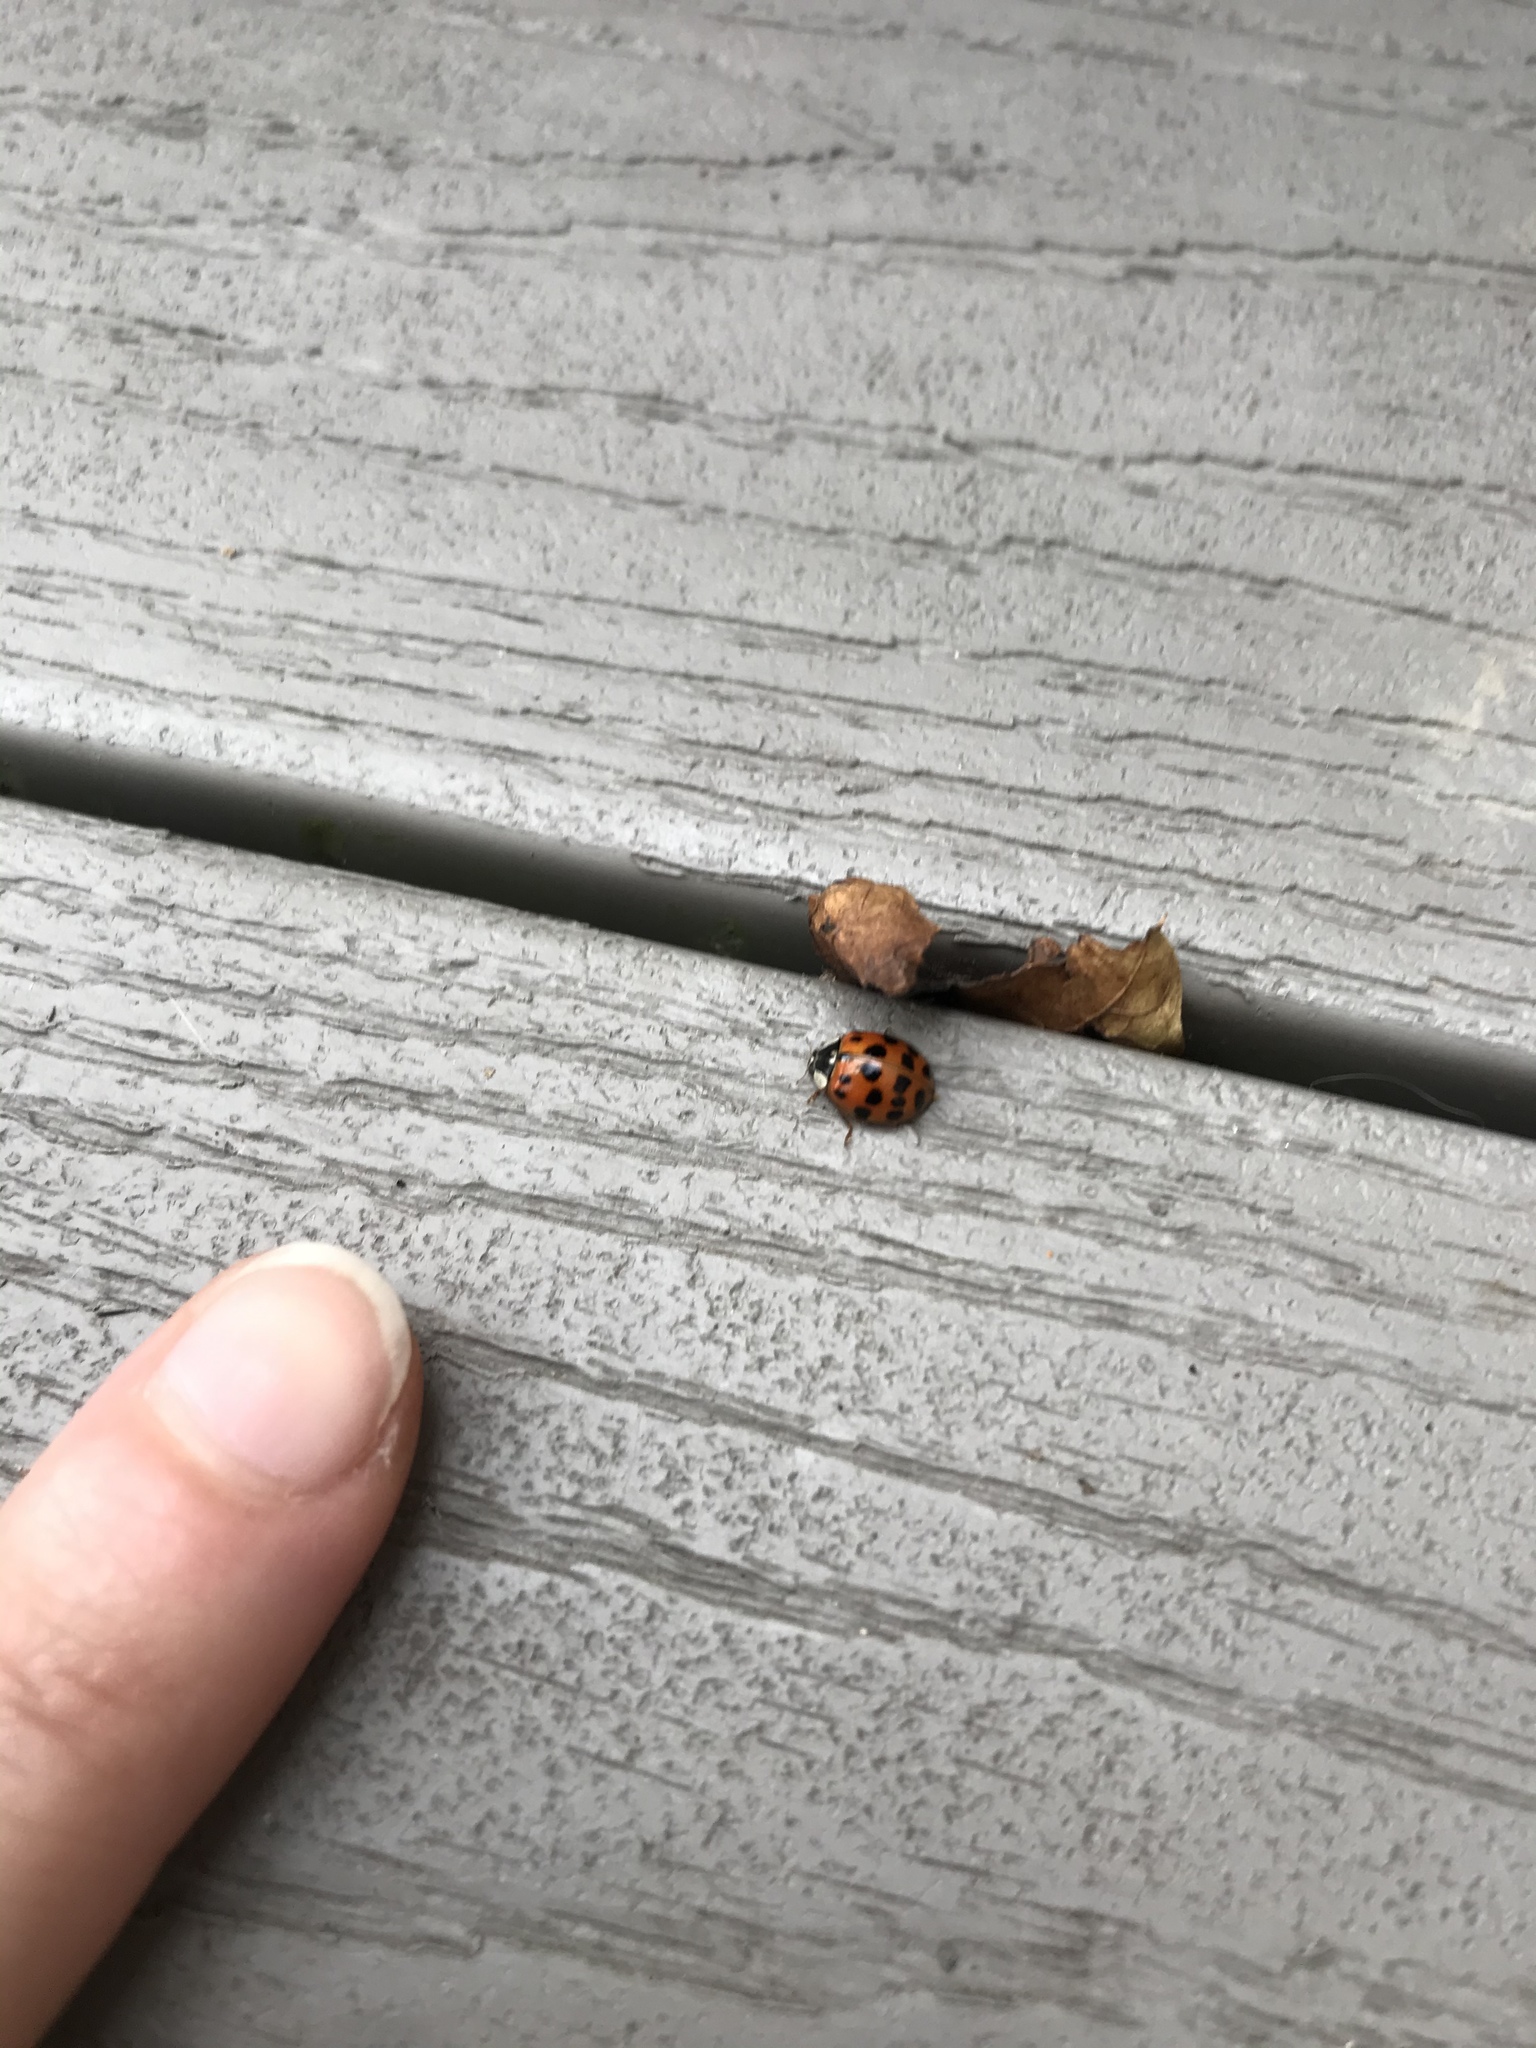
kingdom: Animalia
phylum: Arthropoda
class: Insecta
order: Coleoptera
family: Coccinellidae
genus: Harmonia
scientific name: Harmonia axyridis
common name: Harlequin ladybird
